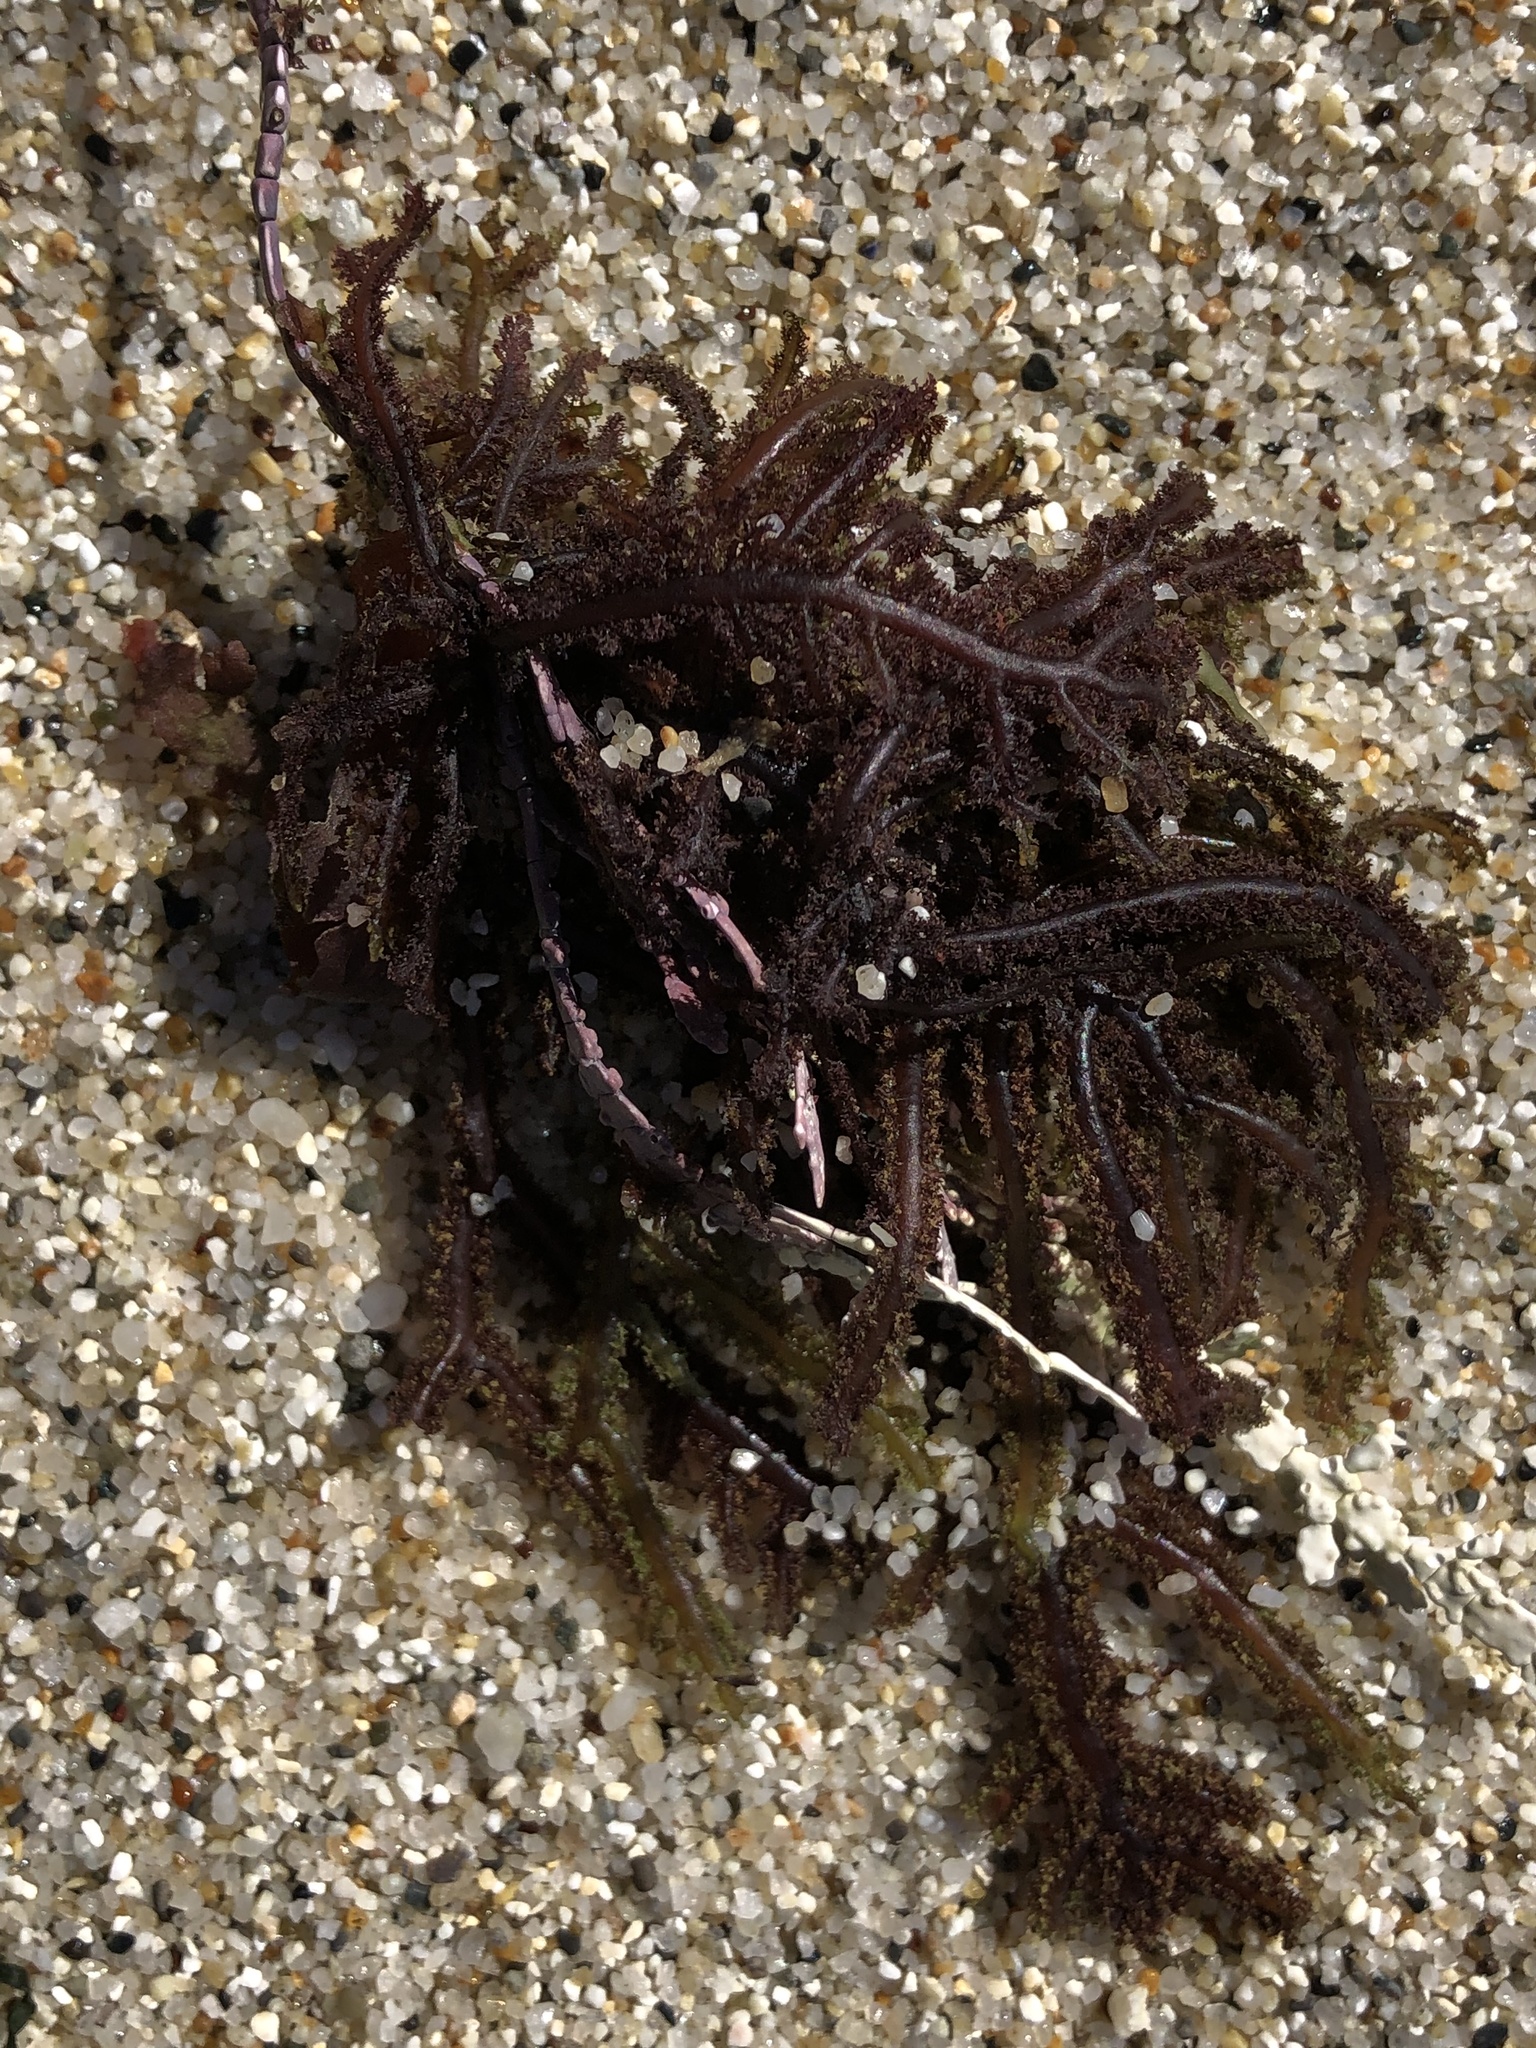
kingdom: Plantae
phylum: Rhodophyta
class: Florideophyceae
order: Ceramiales
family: Wrangeliaceae
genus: Neoptilota
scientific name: Neoptilota densa
